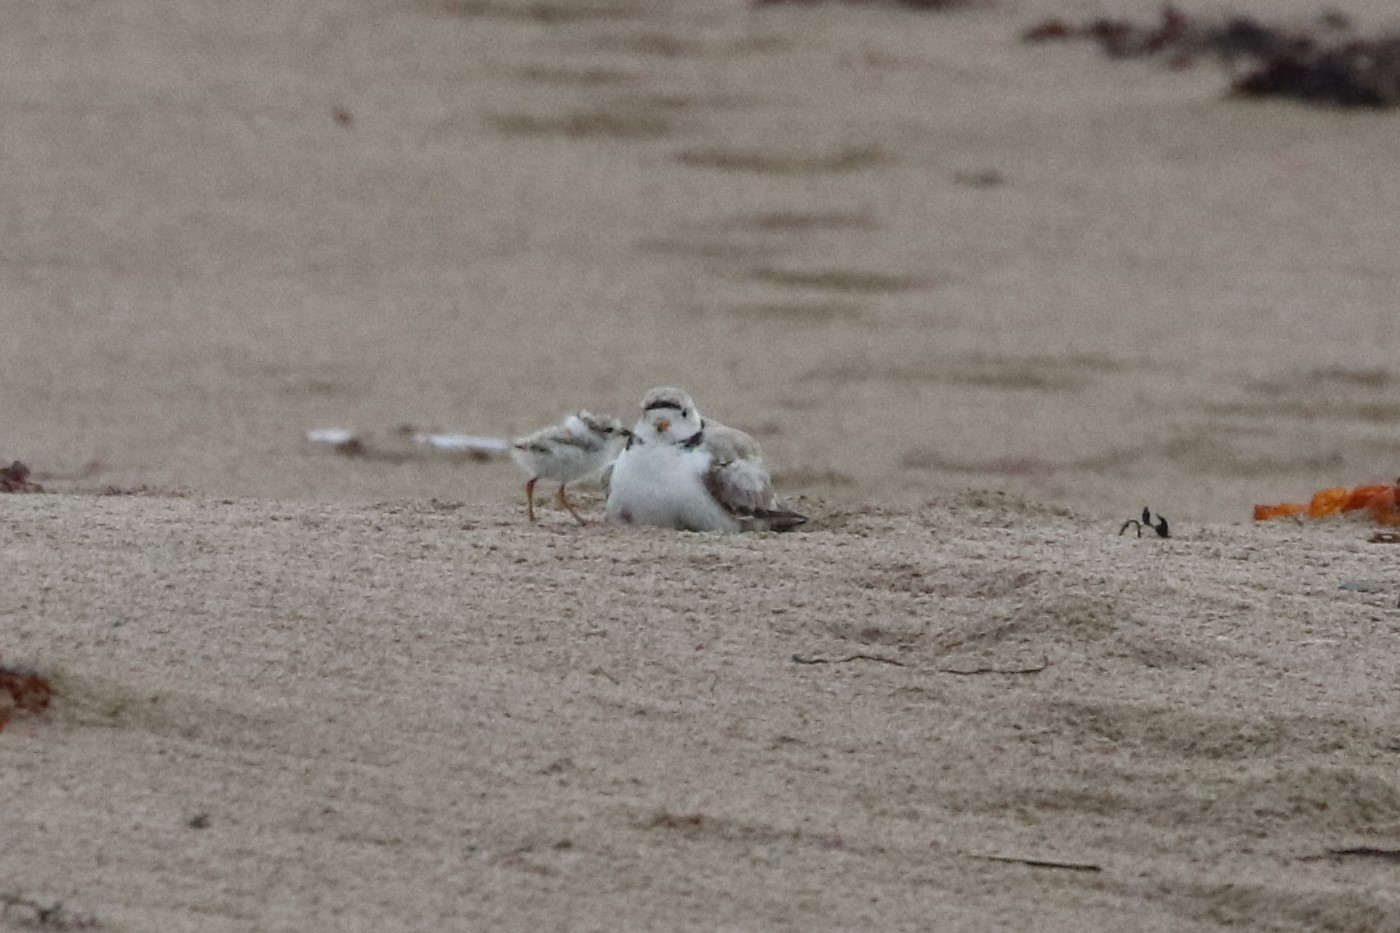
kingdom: Animalia
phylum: Chordata
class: Aves
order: Charadriiformes
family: Charadriidae
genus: Charadrius
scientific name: Charadrius melodus
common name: Piping plover
